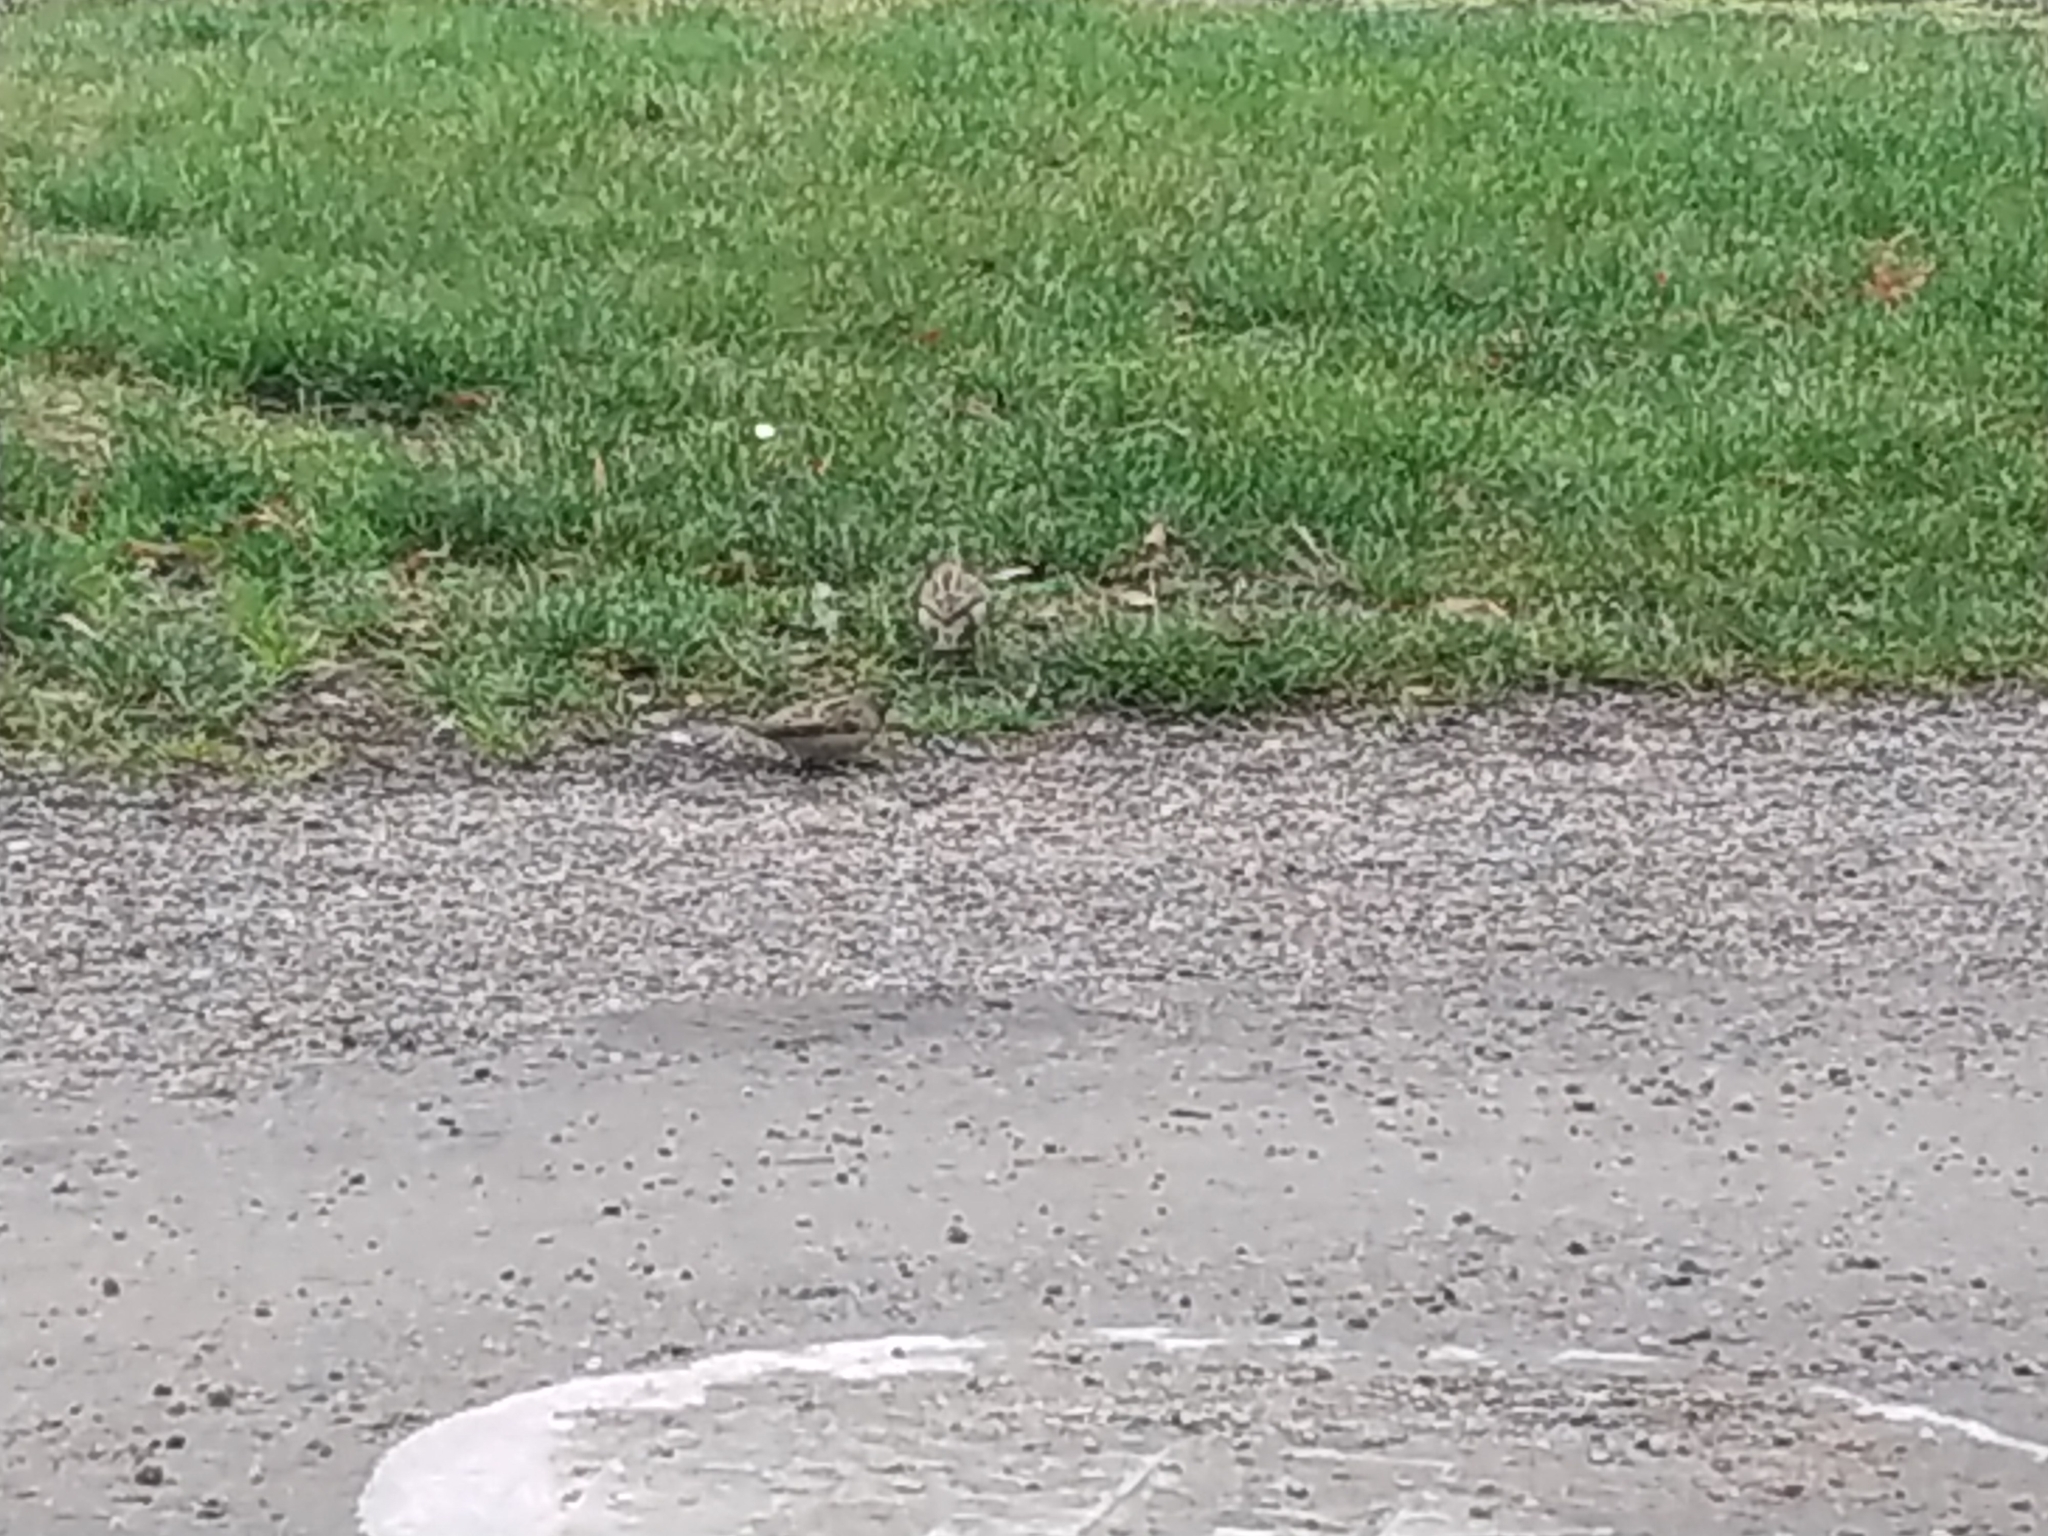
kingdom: Animalia
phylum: Chordata
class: Aves
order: Passeriformes
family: Passeridae
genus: Passer
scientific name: Passer domesticus
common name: House sparrow
